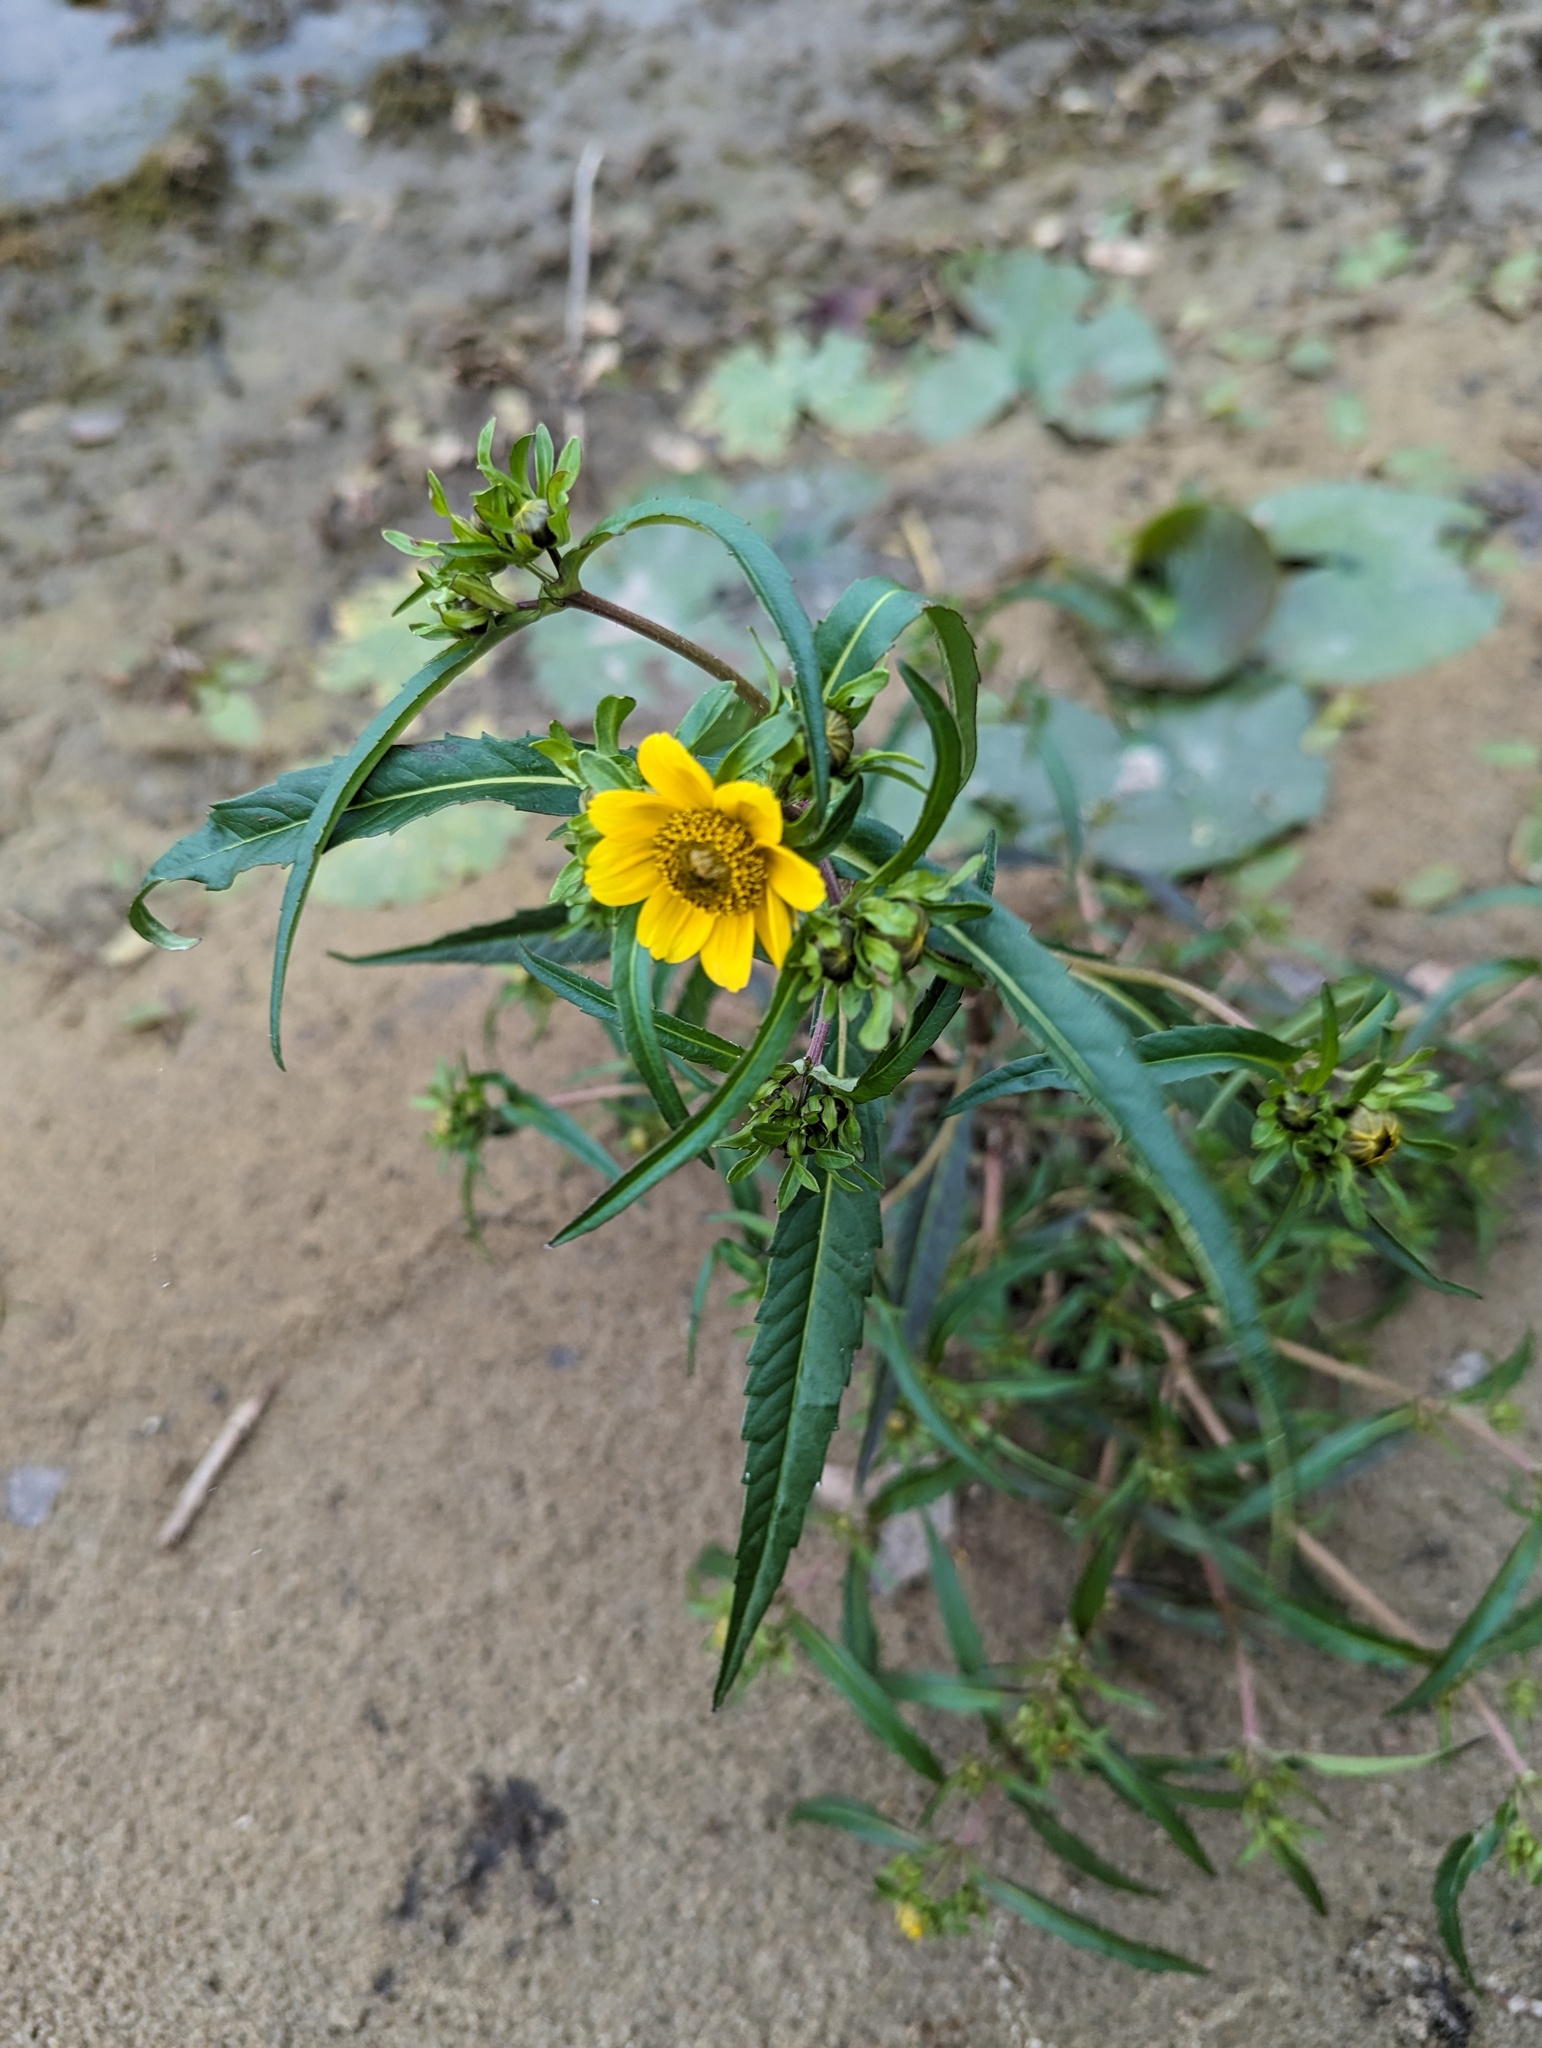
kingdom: Plantae
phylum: Tracheophyta
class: Magnoliopsida
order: Asterales
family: Asteraceae
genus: Bidens
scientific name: Bidens cernua
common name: Nodding bur-marigold
